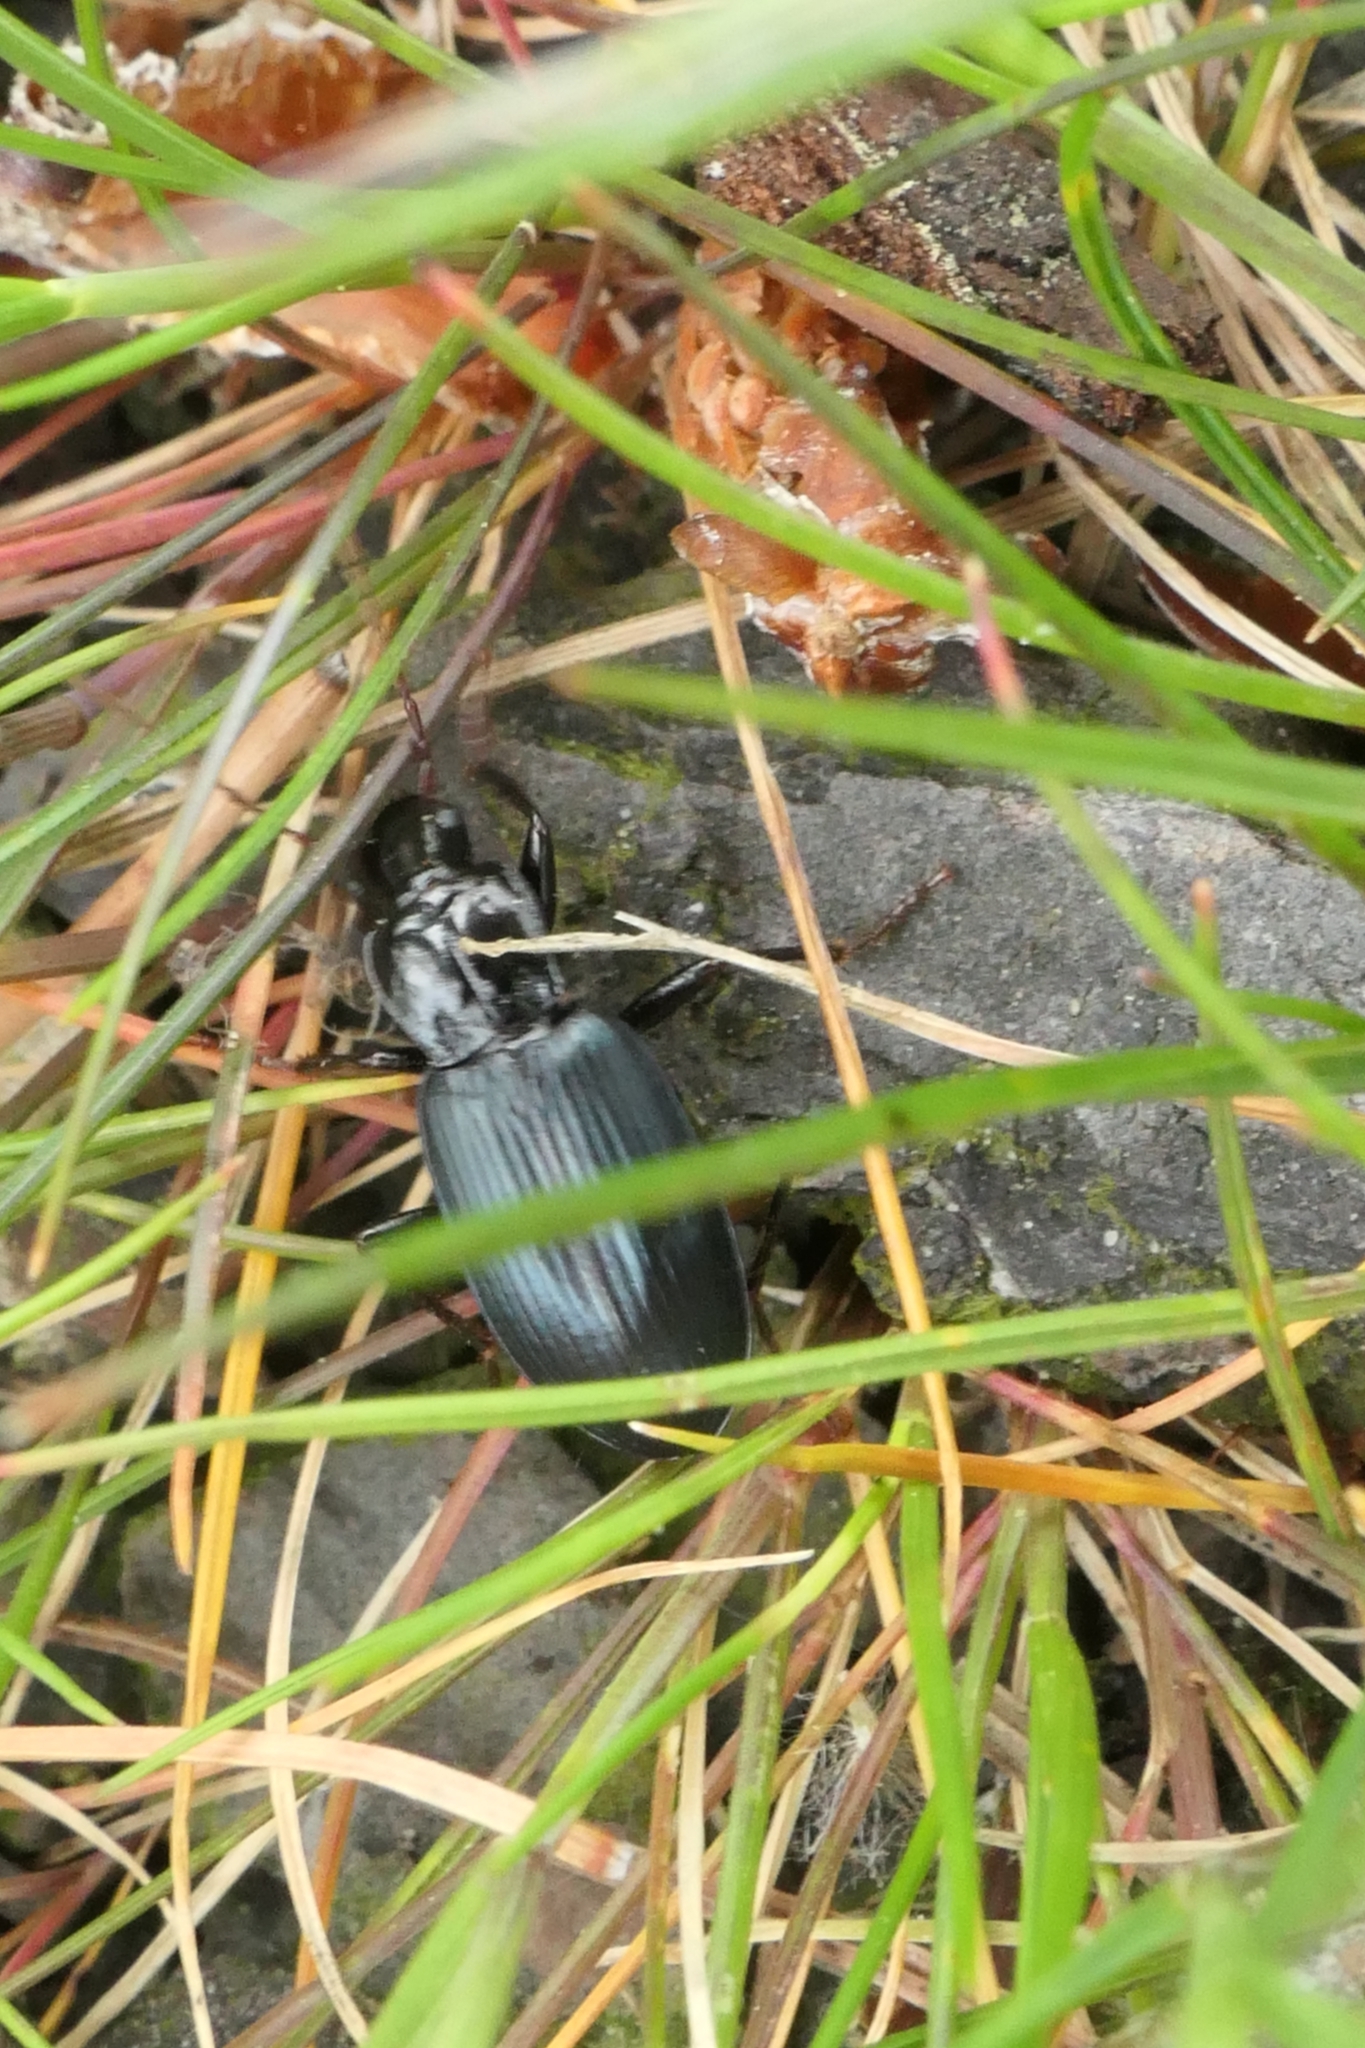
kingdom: Animalia
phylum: Arthropoda
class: Insecta
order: Coleoptera
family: Carabidae
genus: Laemostenus
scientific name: Laemostenus complanatus
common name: Cosmopolitan ground beetle
